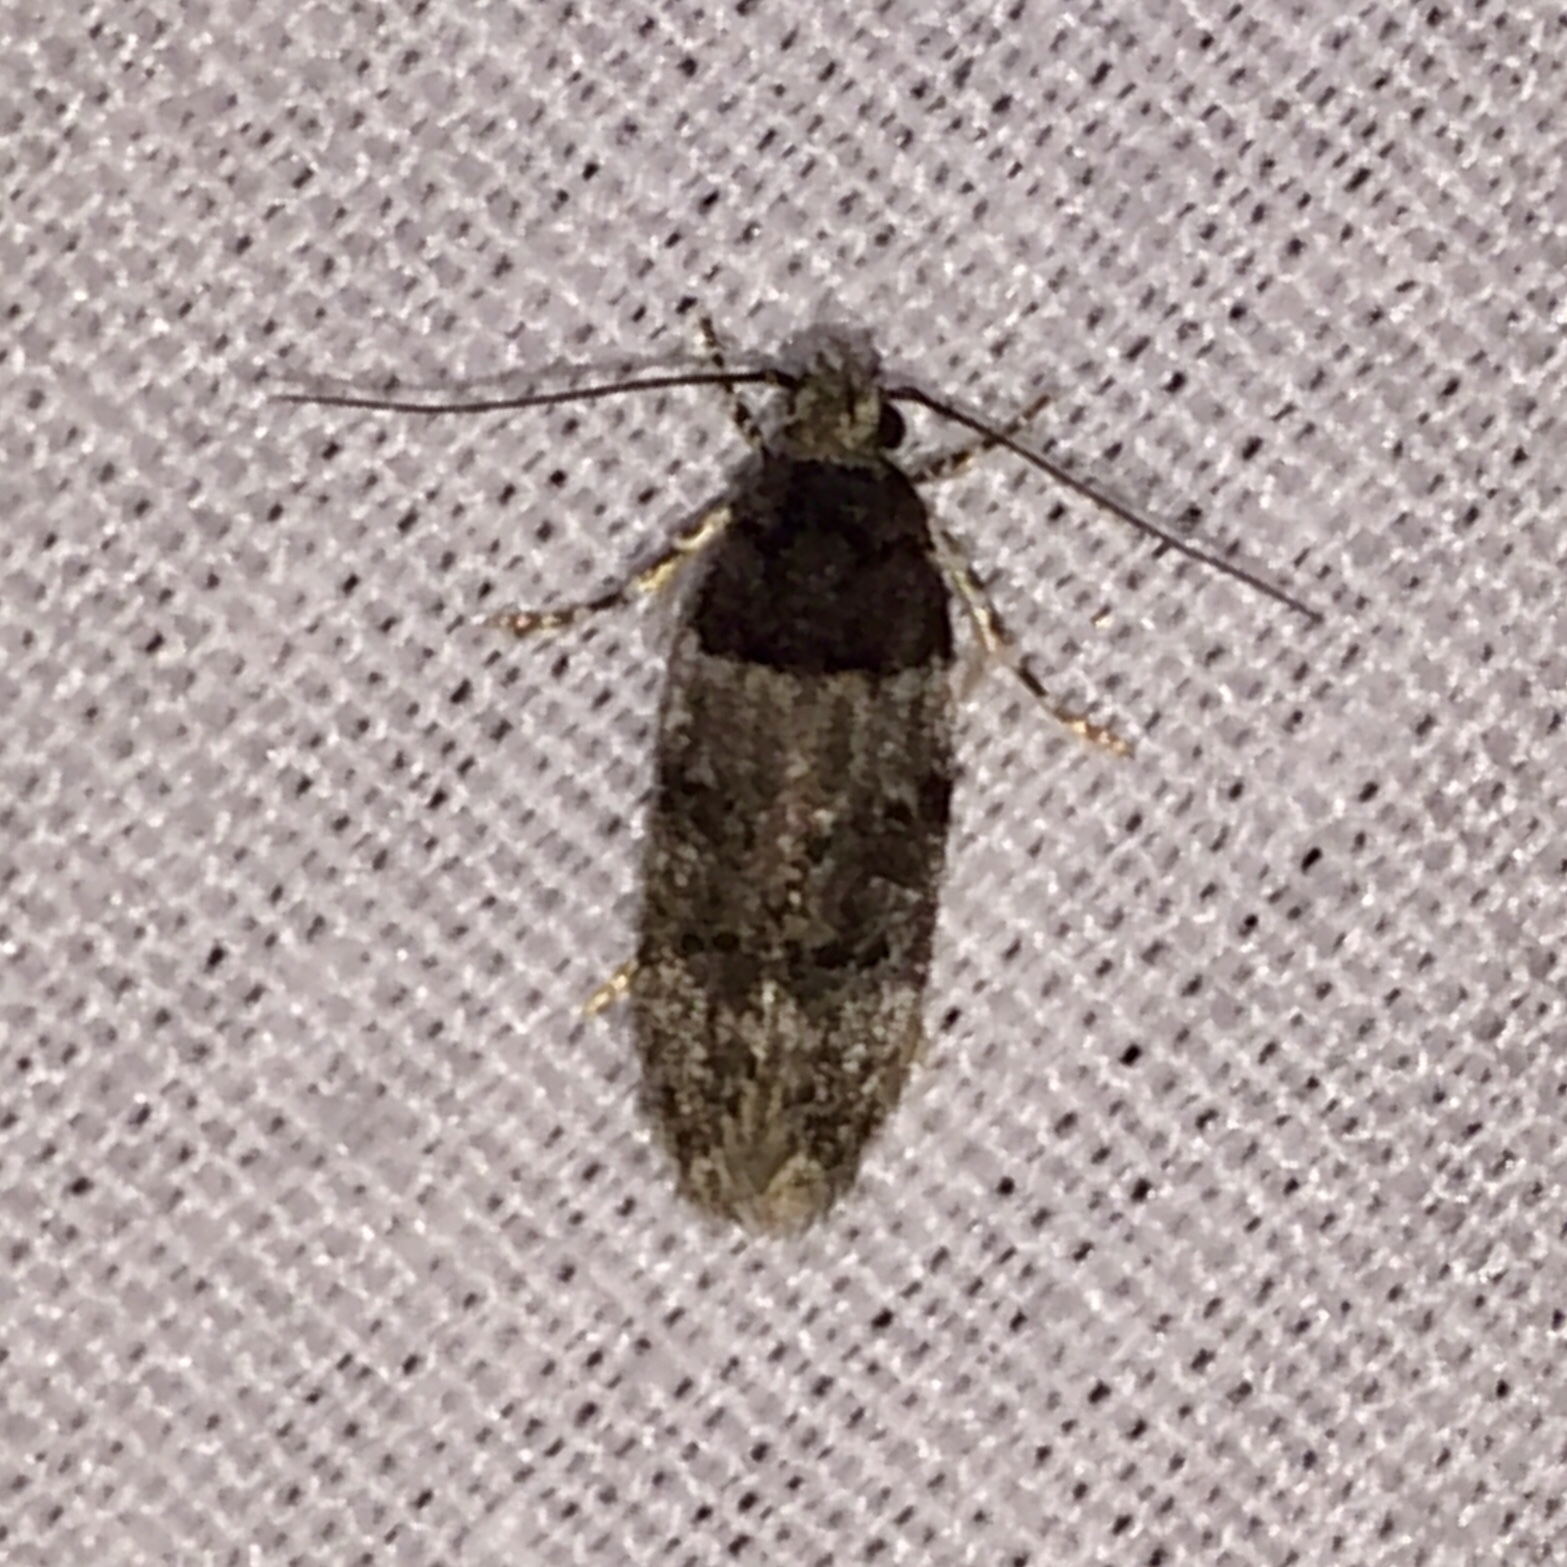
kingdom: Animalia
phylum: Arthropoda
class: Insecta
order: Lepidoptera
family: Gelechiidae
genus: Pubitelphusa
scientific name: Pubitelphusa latifasciella
